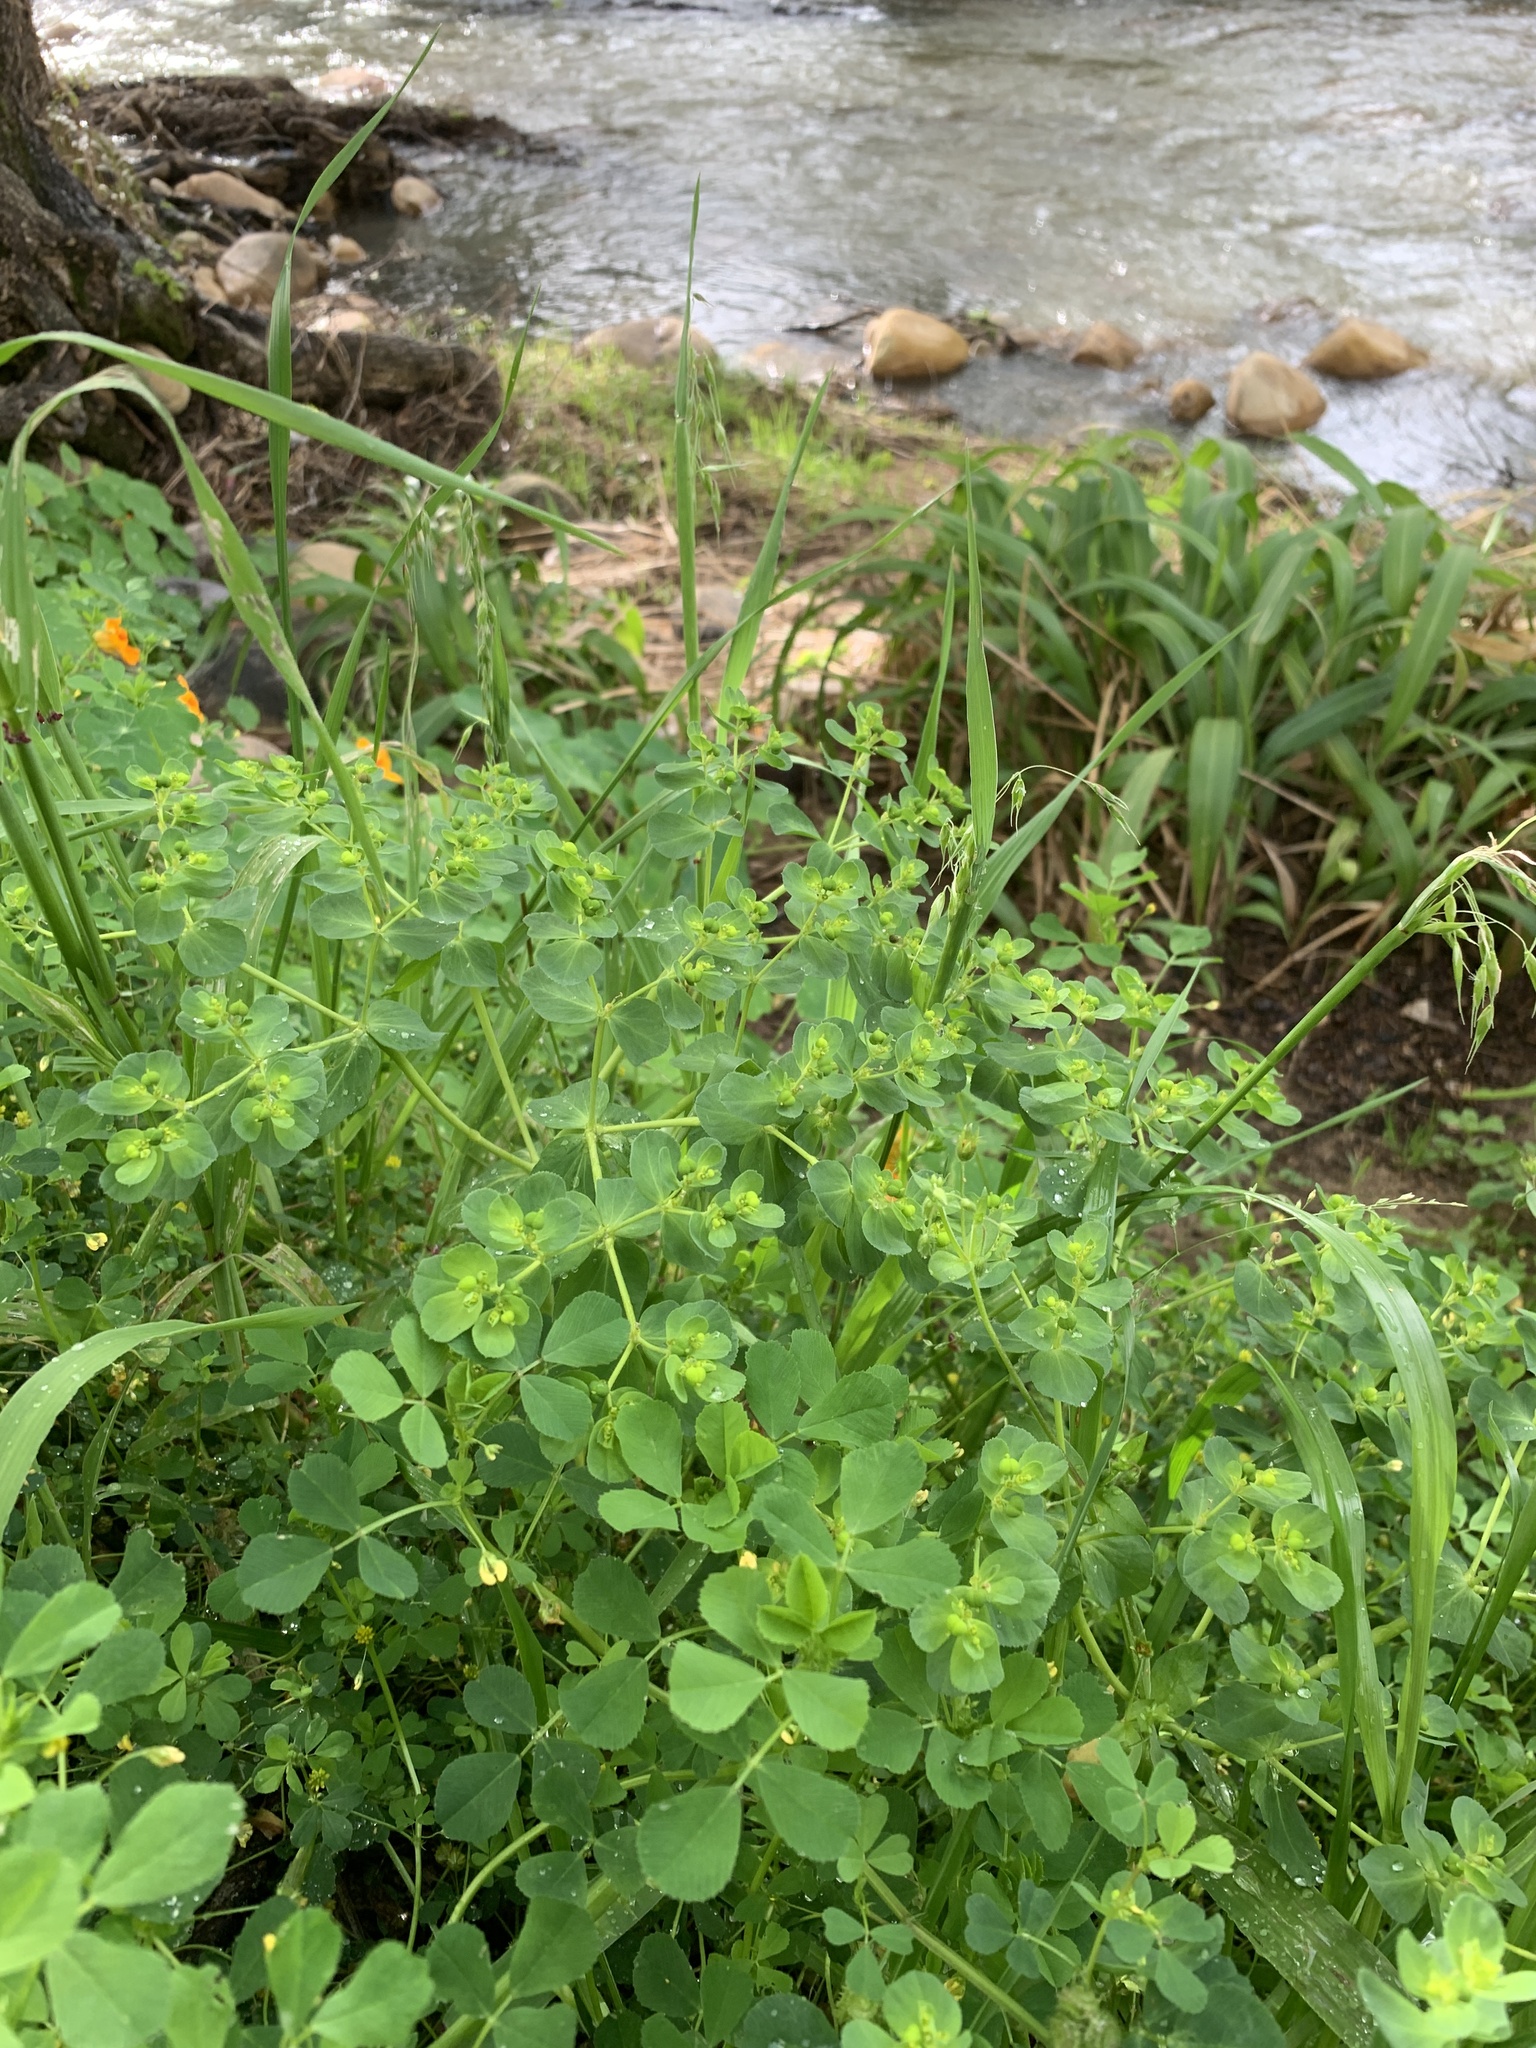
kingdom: Plantae
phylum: Tracheophyta
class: Magnoliopsida
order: Malpighiales
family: Euphorbiaceae
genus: Euphorbia
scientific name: Euphorbia helioscopia
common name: Sun spurge
